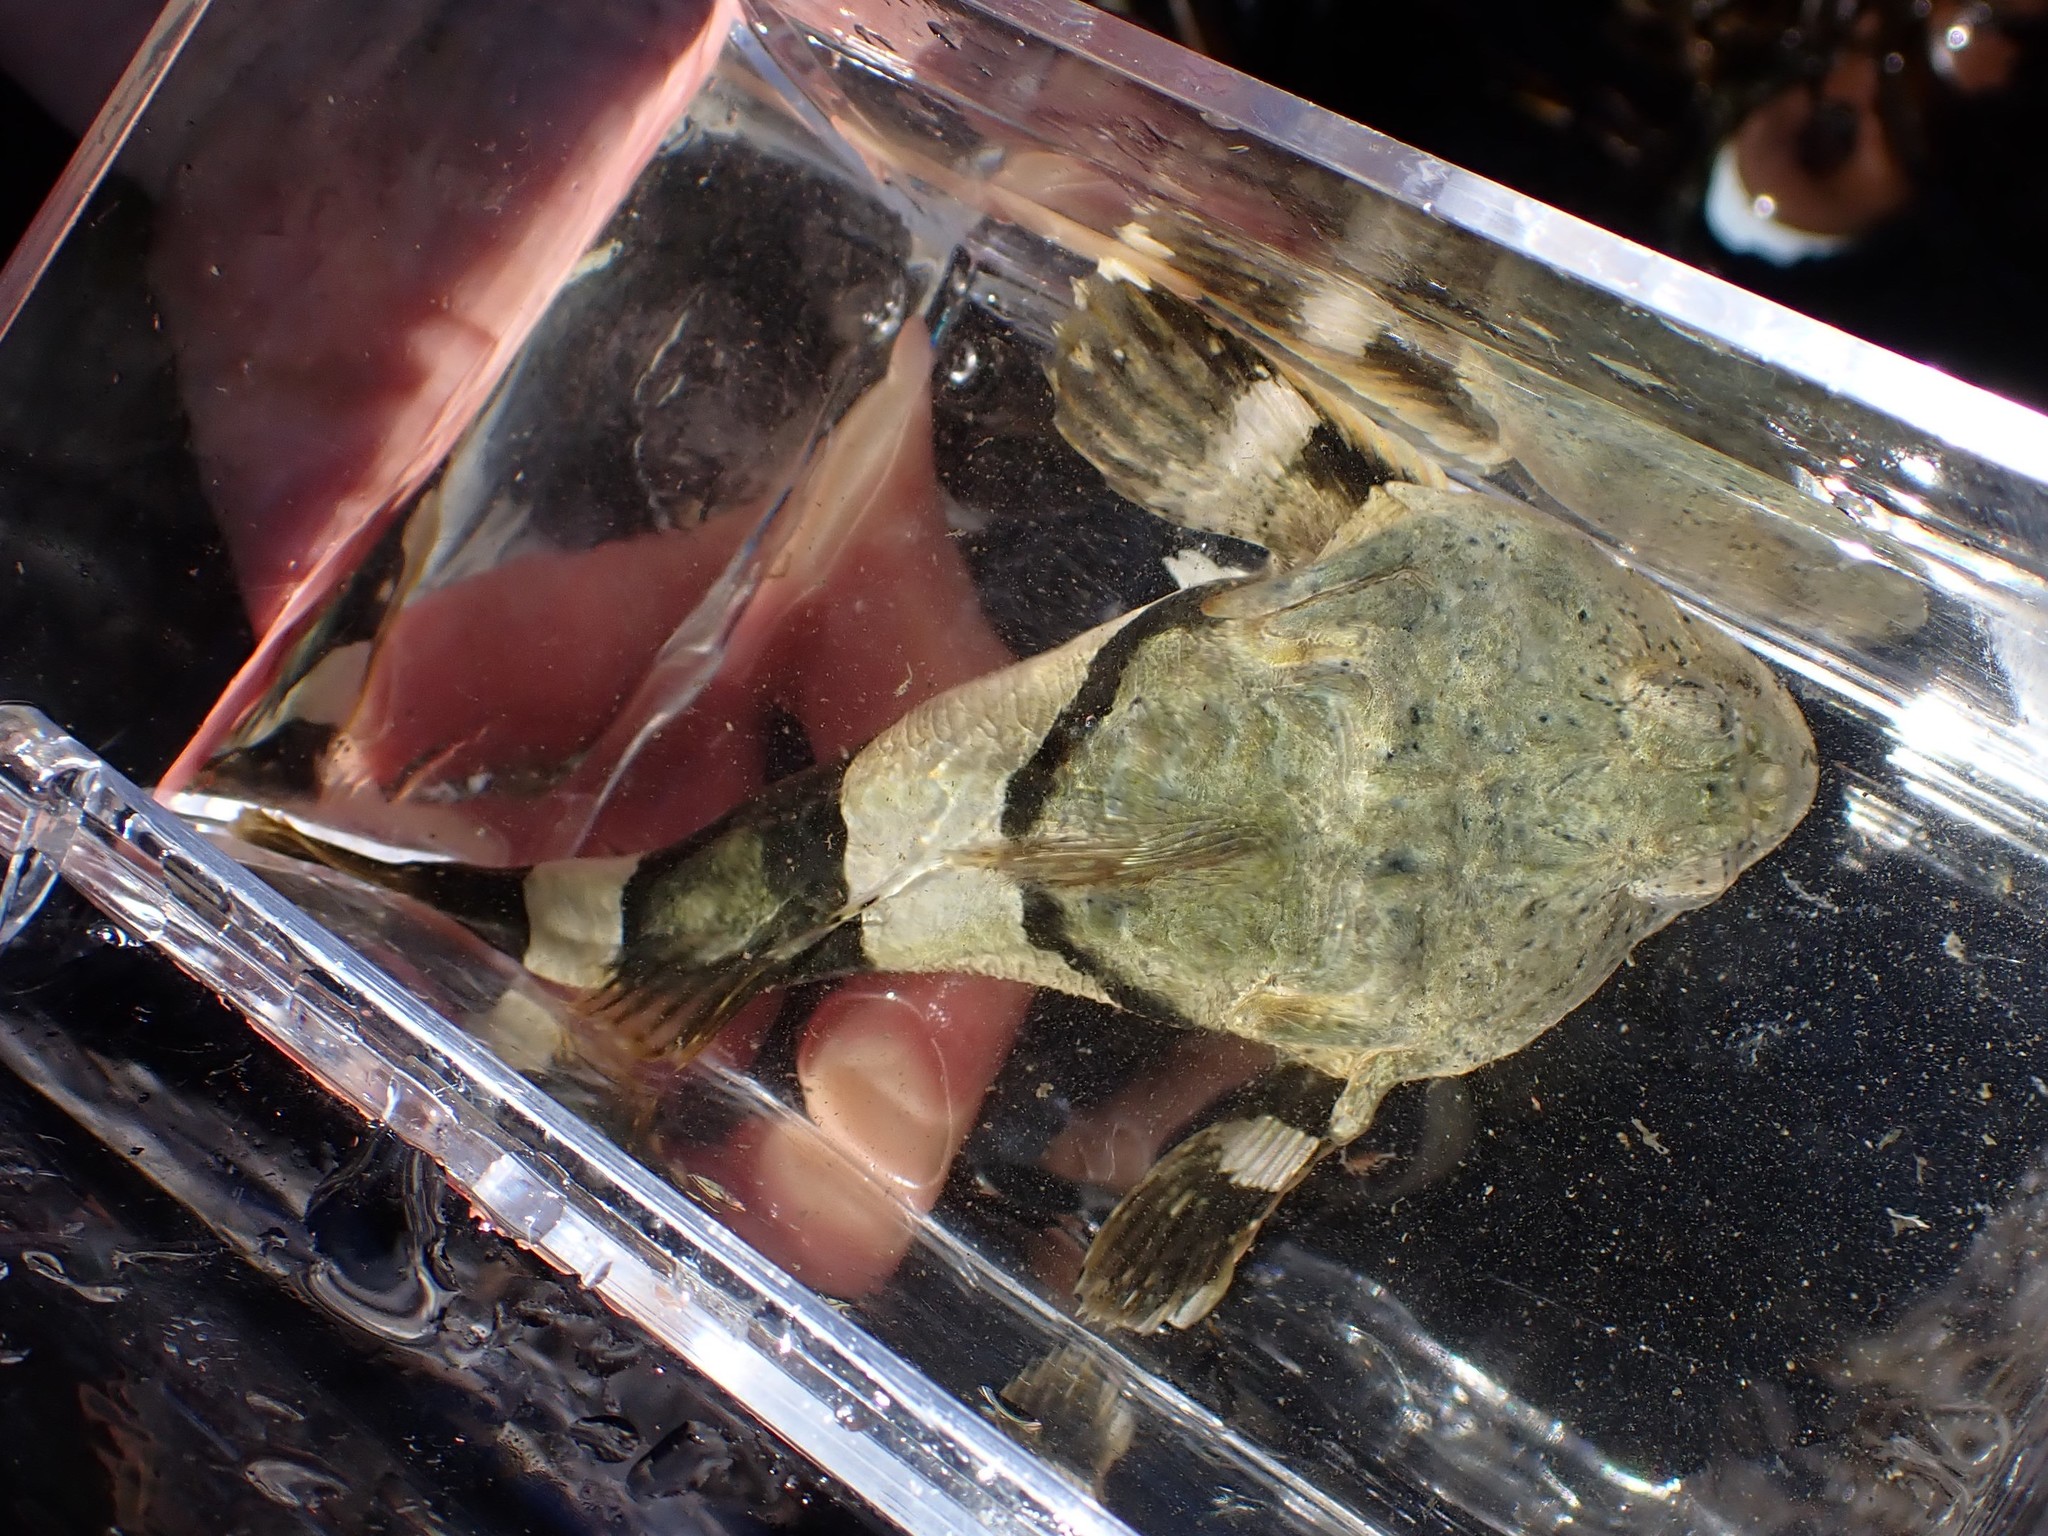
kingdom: Animalia
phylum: Chordata
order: Scorpaeniformes
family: Cottidae
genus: Enophrys
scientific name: Enophrys bison
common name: Buffalo sculpin
